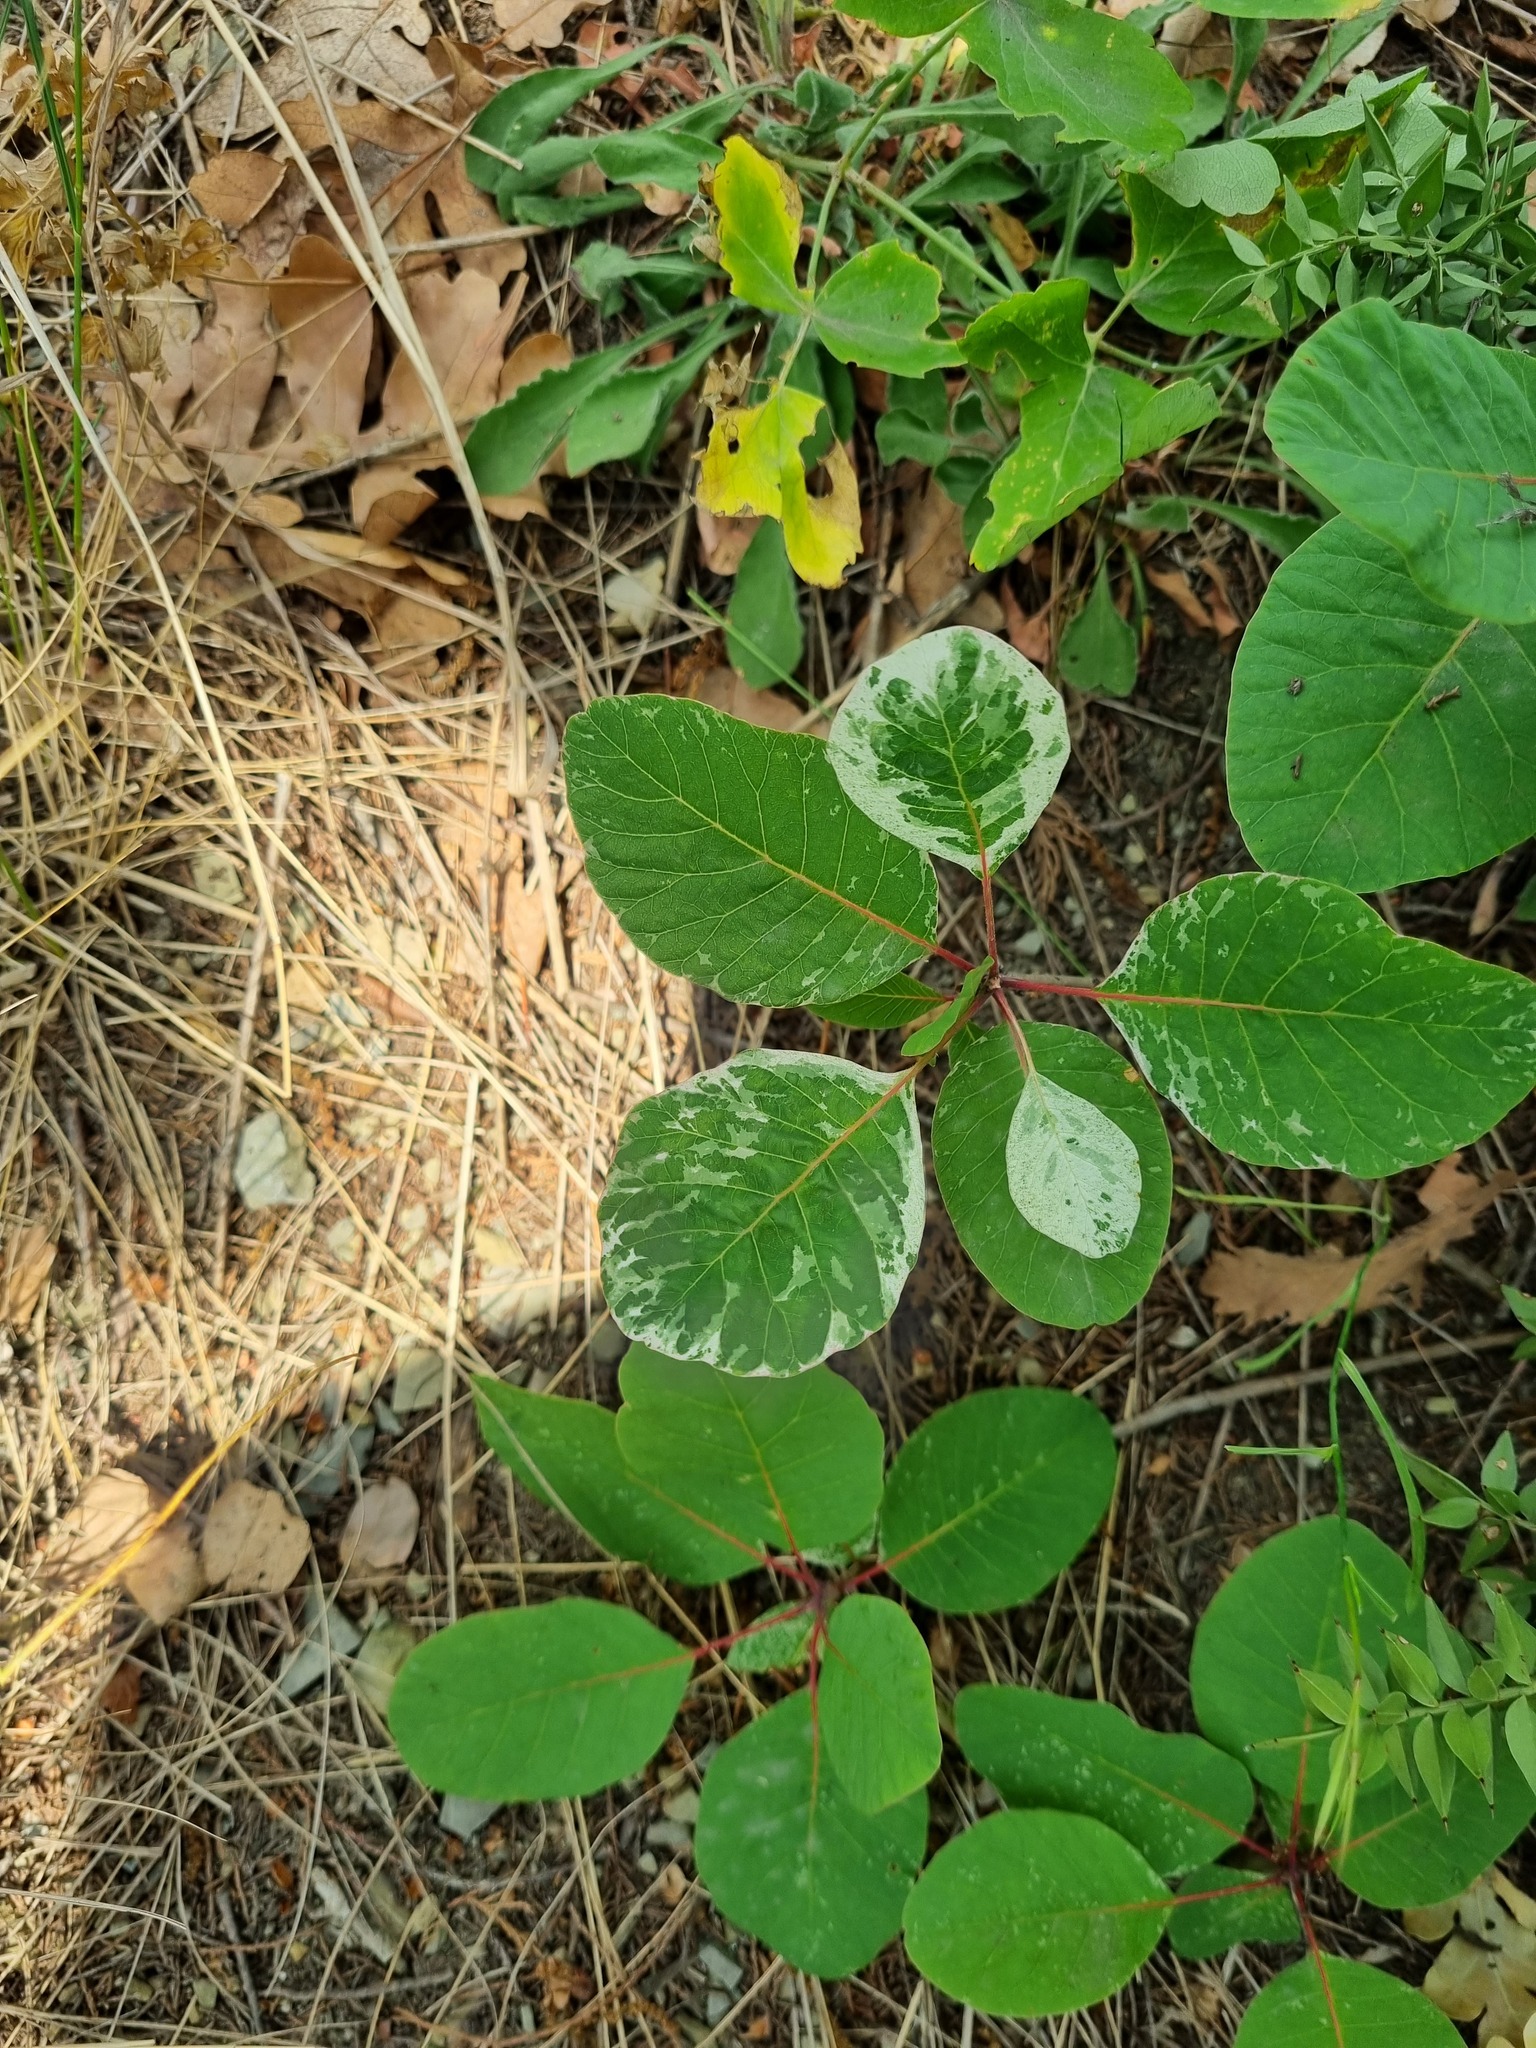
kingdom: Plantae
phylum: Tracheophyta
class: Magnoliopsida
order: Sapindales
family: Anacardiaceae
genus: Cotinus
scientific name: Cotinus coggygria
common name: Smoke-tree
